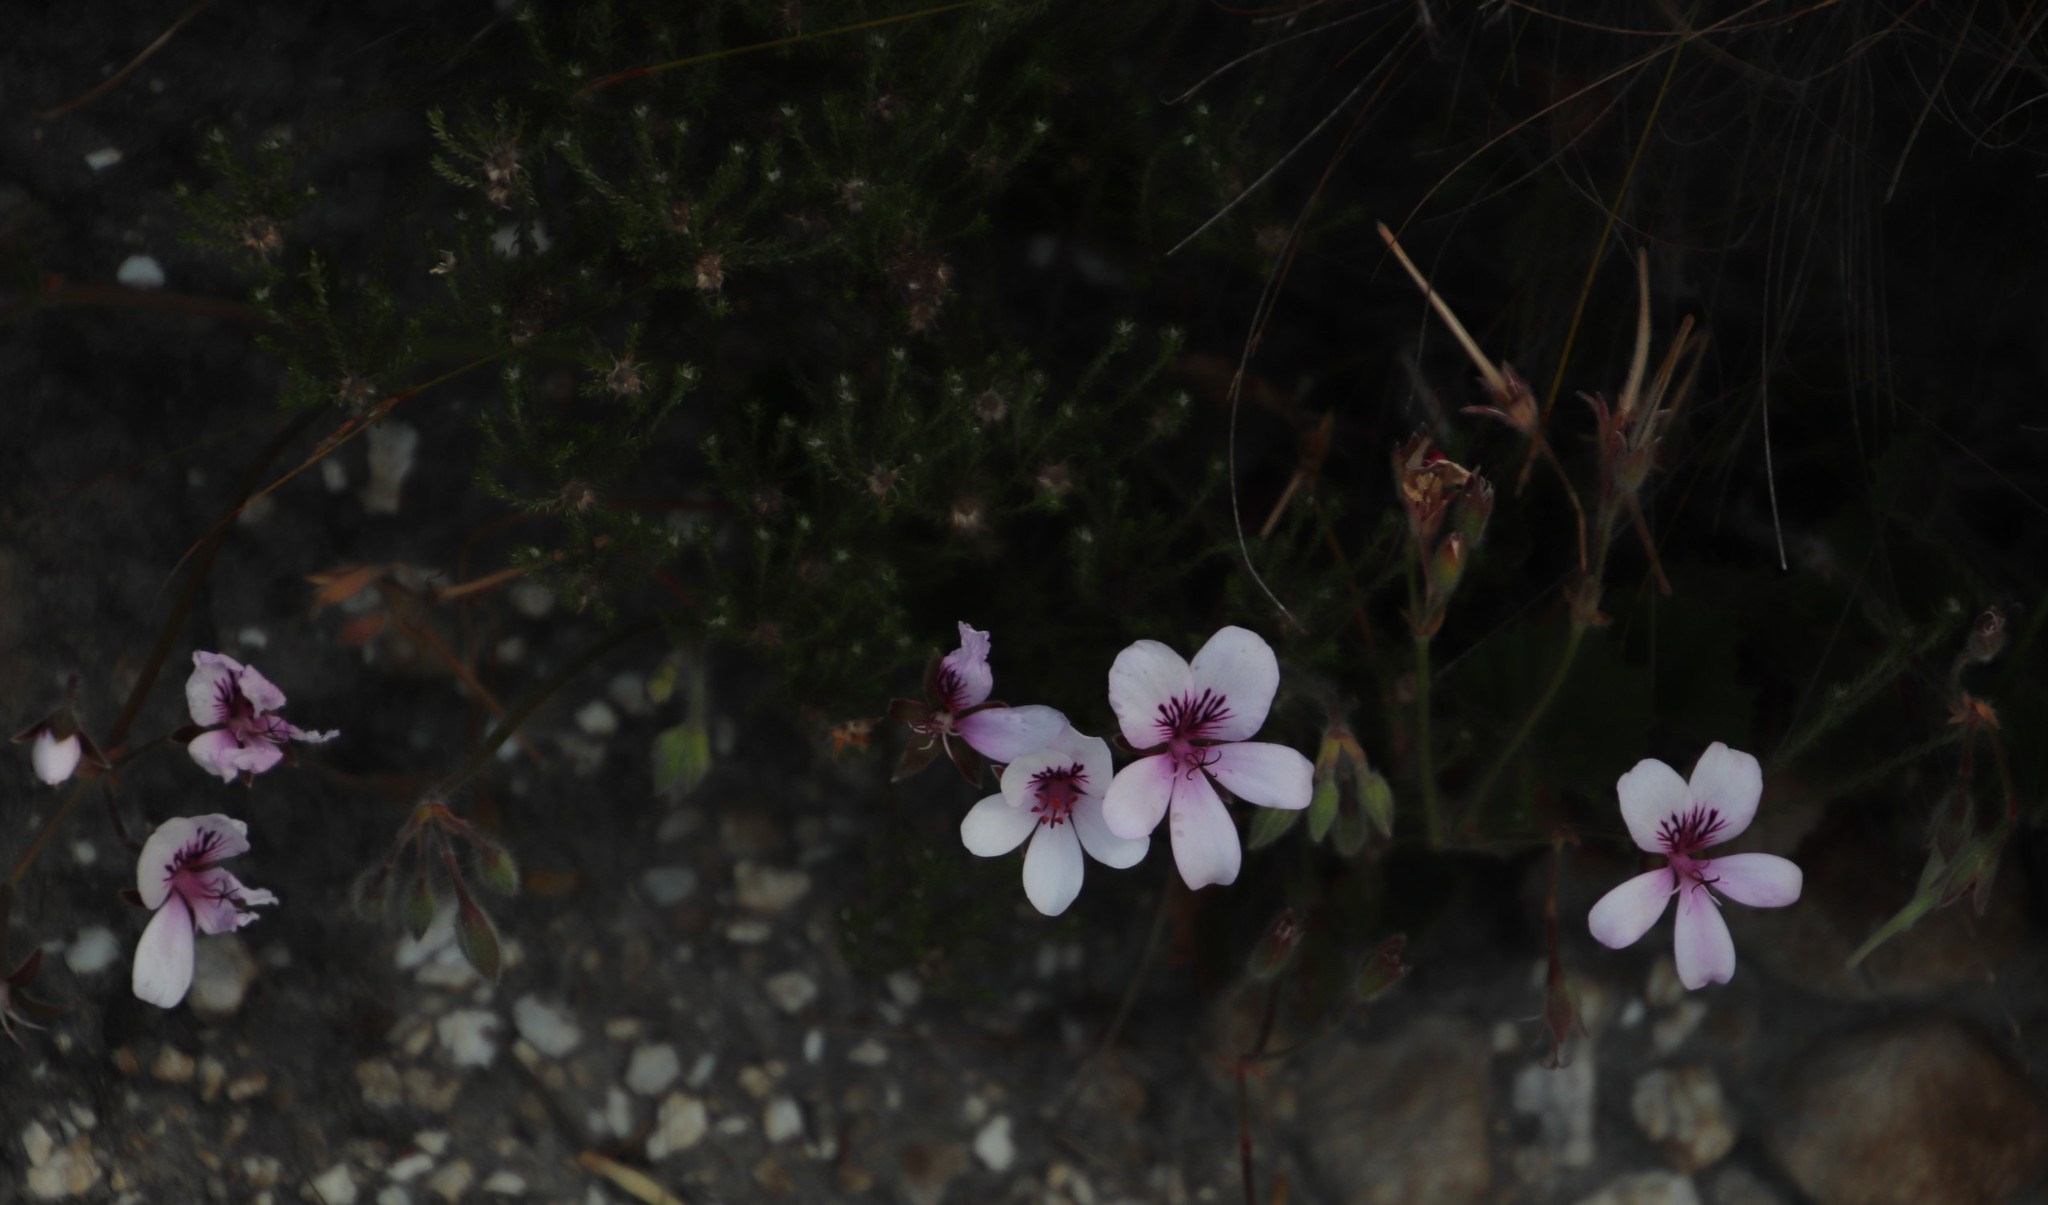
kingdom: Plantae
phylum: Tracheophyta
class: Magnoliopsida
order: Geraniales
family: Geraniaceae
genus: Pelargonium
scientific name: Pelargonium elegans
